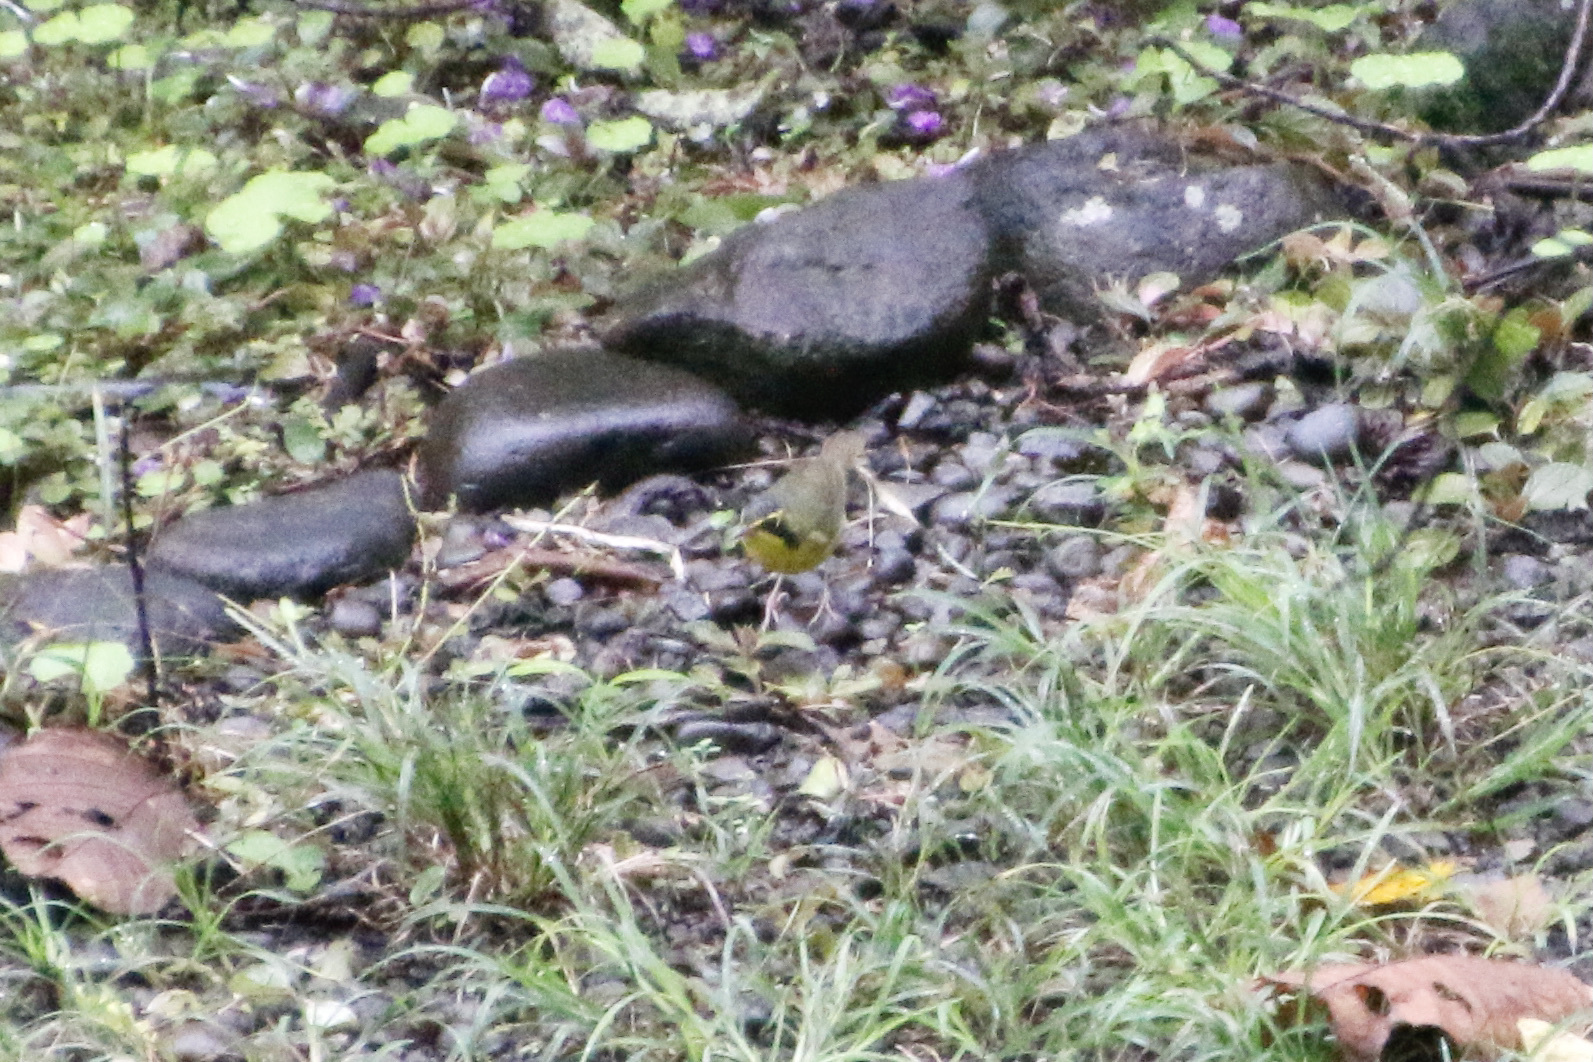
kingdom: Animalia
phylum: Chordata
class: Aves
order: Passeriformes
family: Parulidae
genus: Geothlypis
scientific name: Geothlypis formosa
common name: Kentucky warbler
